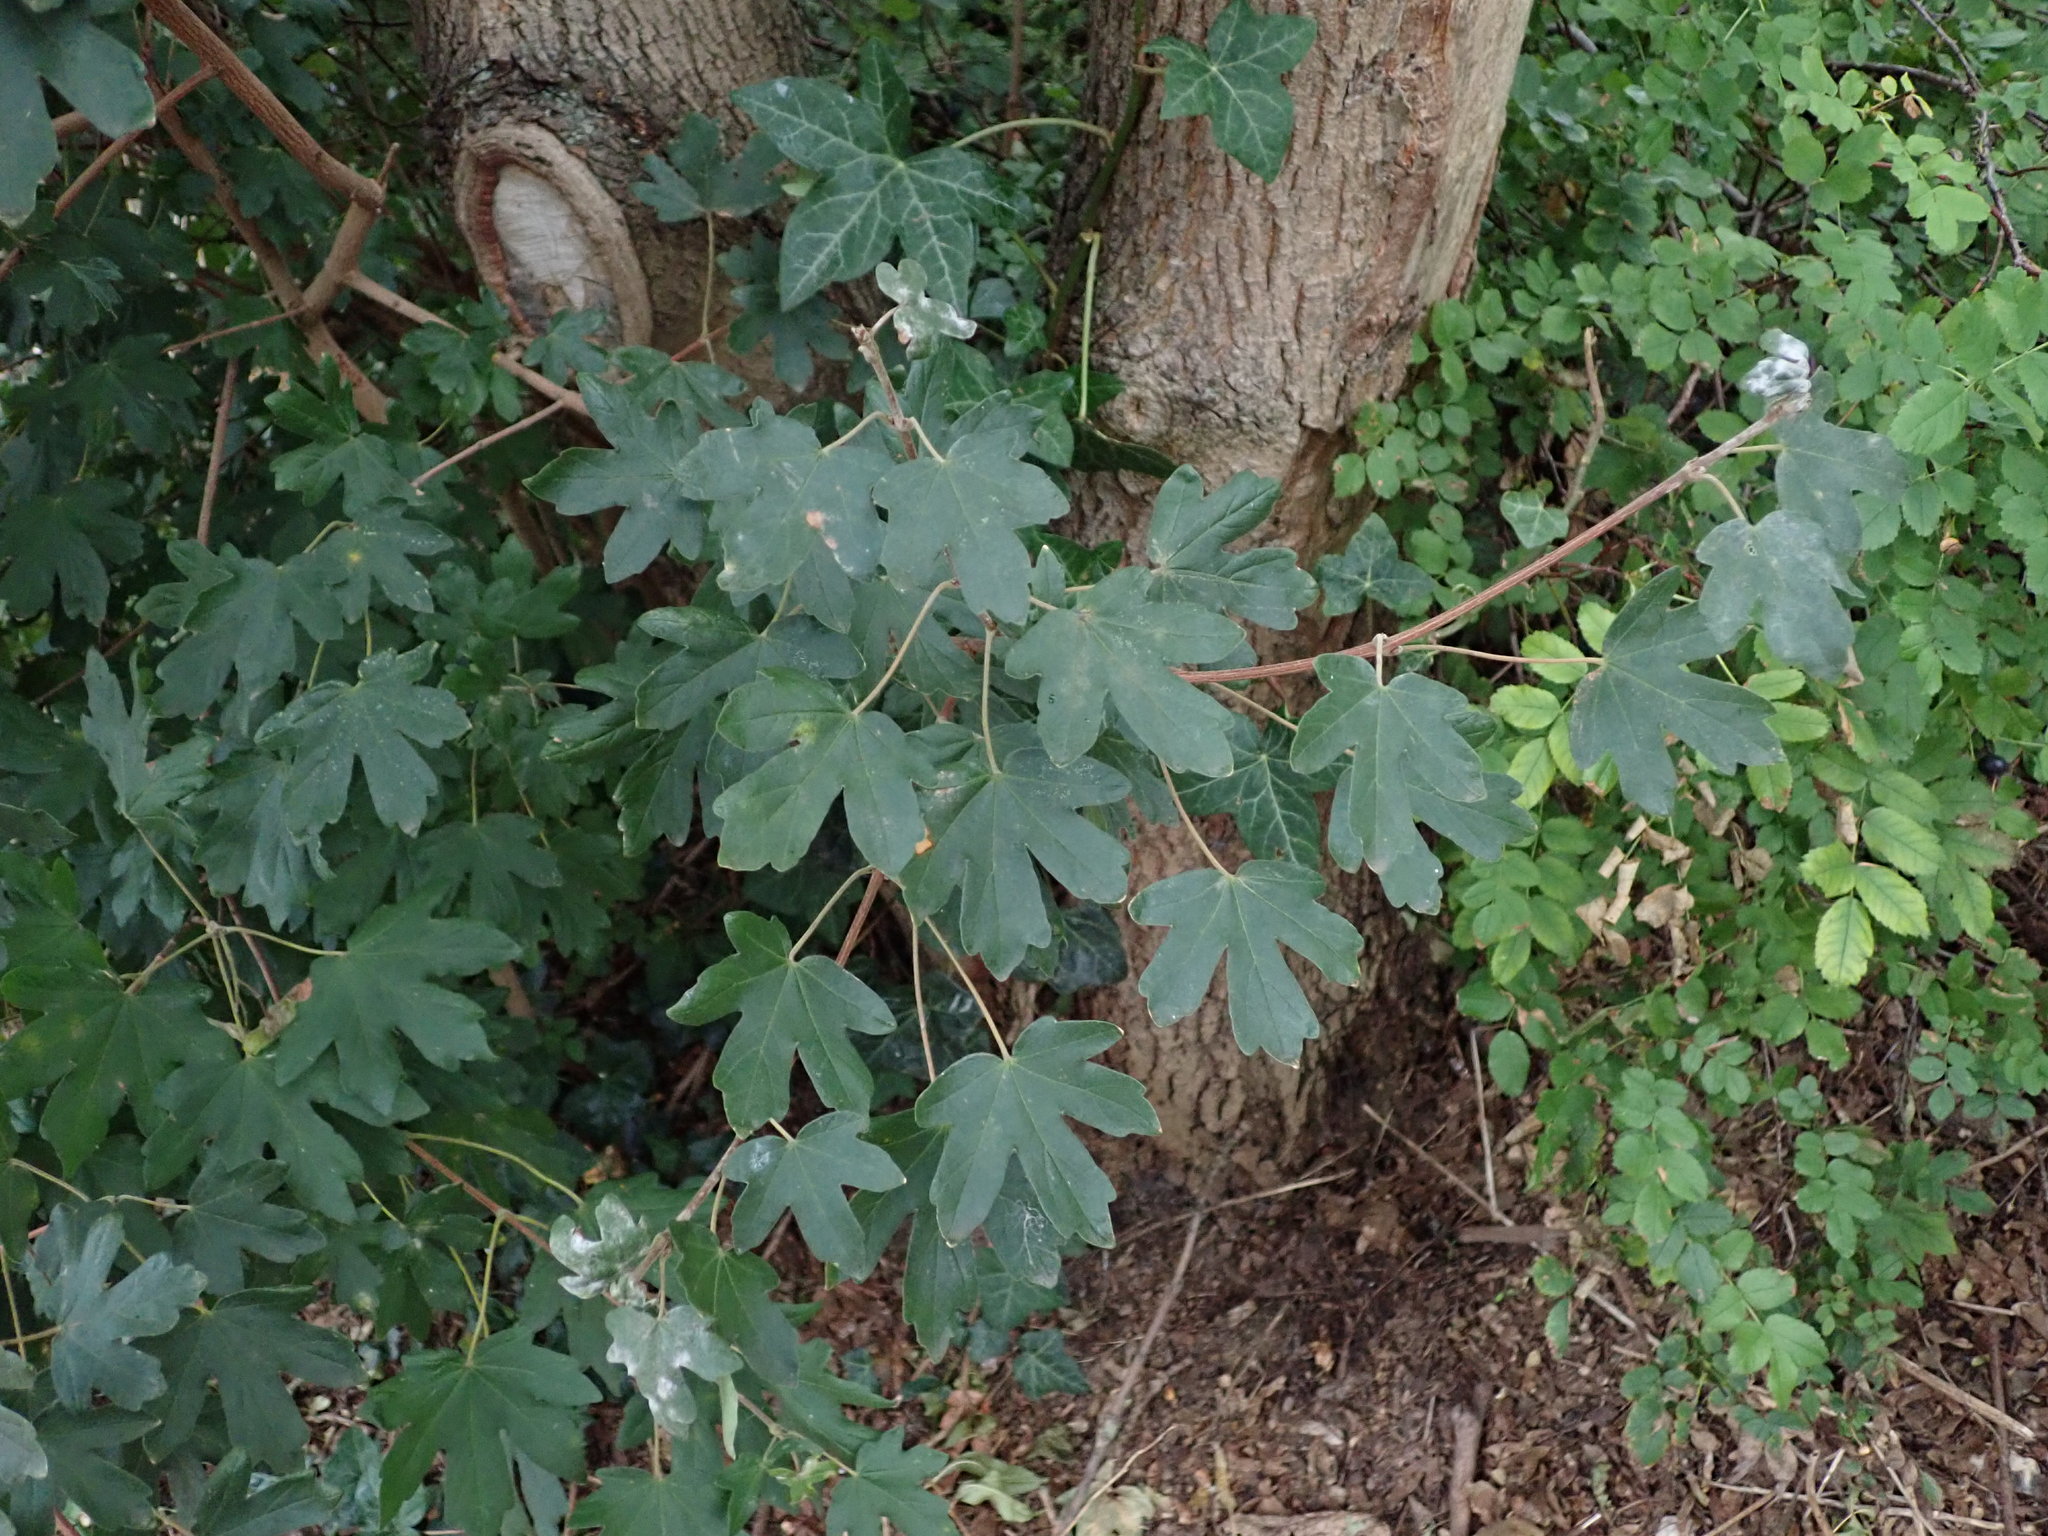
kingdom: Plantae
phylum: Tracheophyta
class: Magnoliopsida
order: Sapindales
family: Sapindaceae
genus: Acer
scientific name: Acer campestre
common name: Field maple
